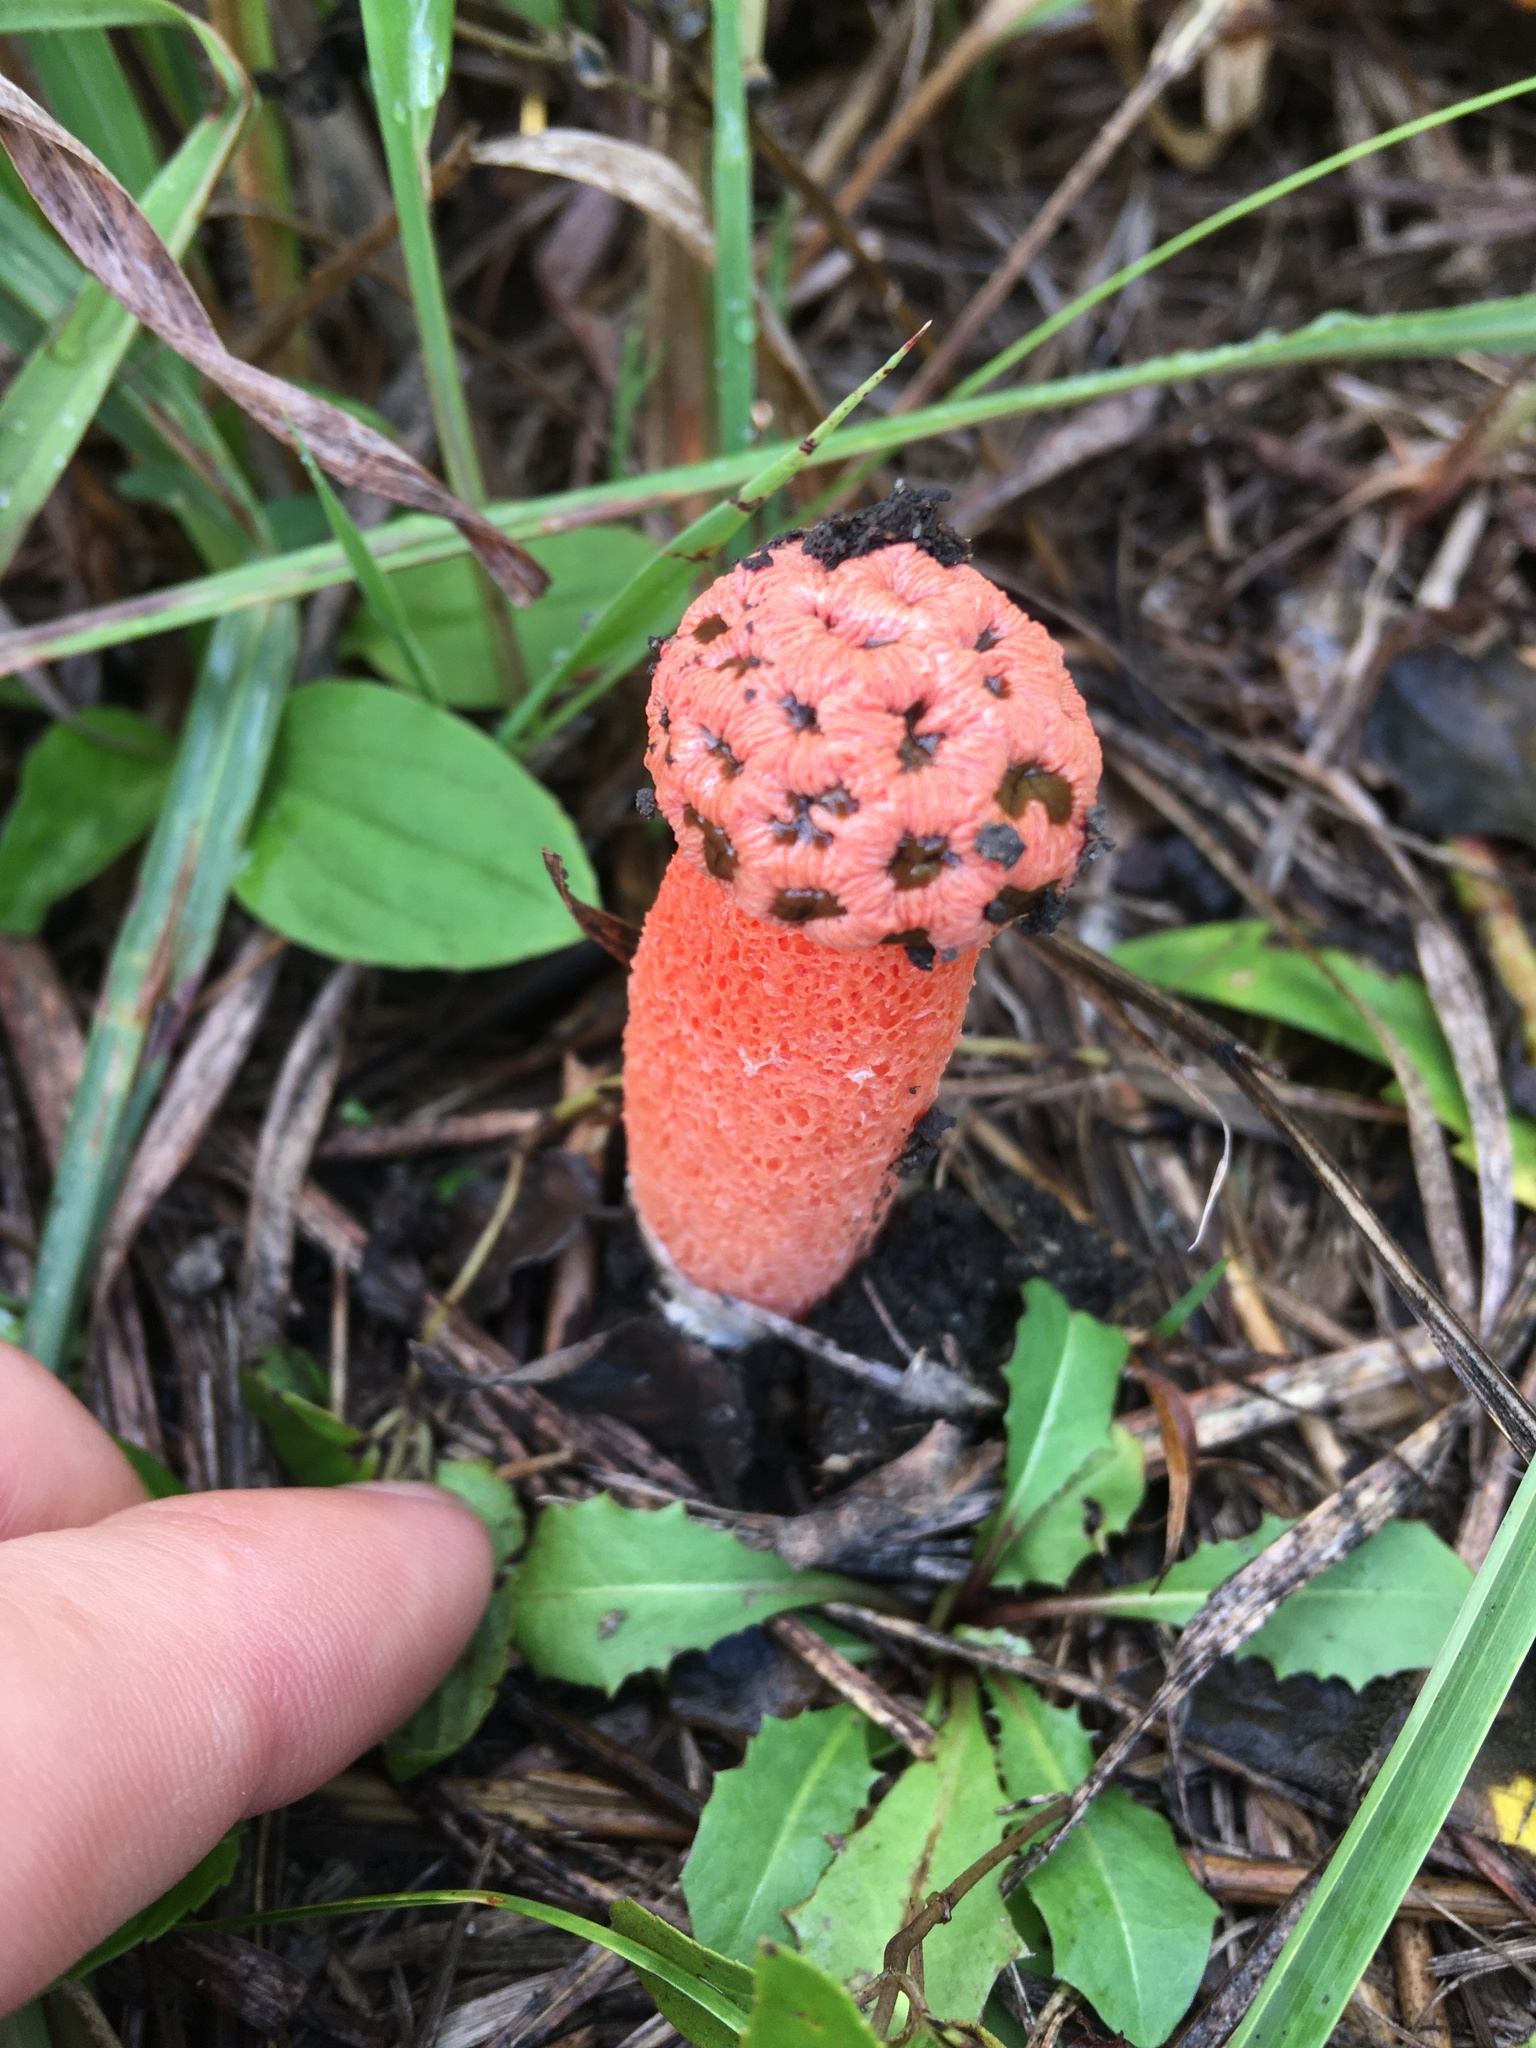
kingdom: Fungi
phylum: Basidiomycota
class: Agaricomycetes
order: Phallales
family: Phallaceae
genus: Lysurus
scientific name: Lysurus periphragmoides
